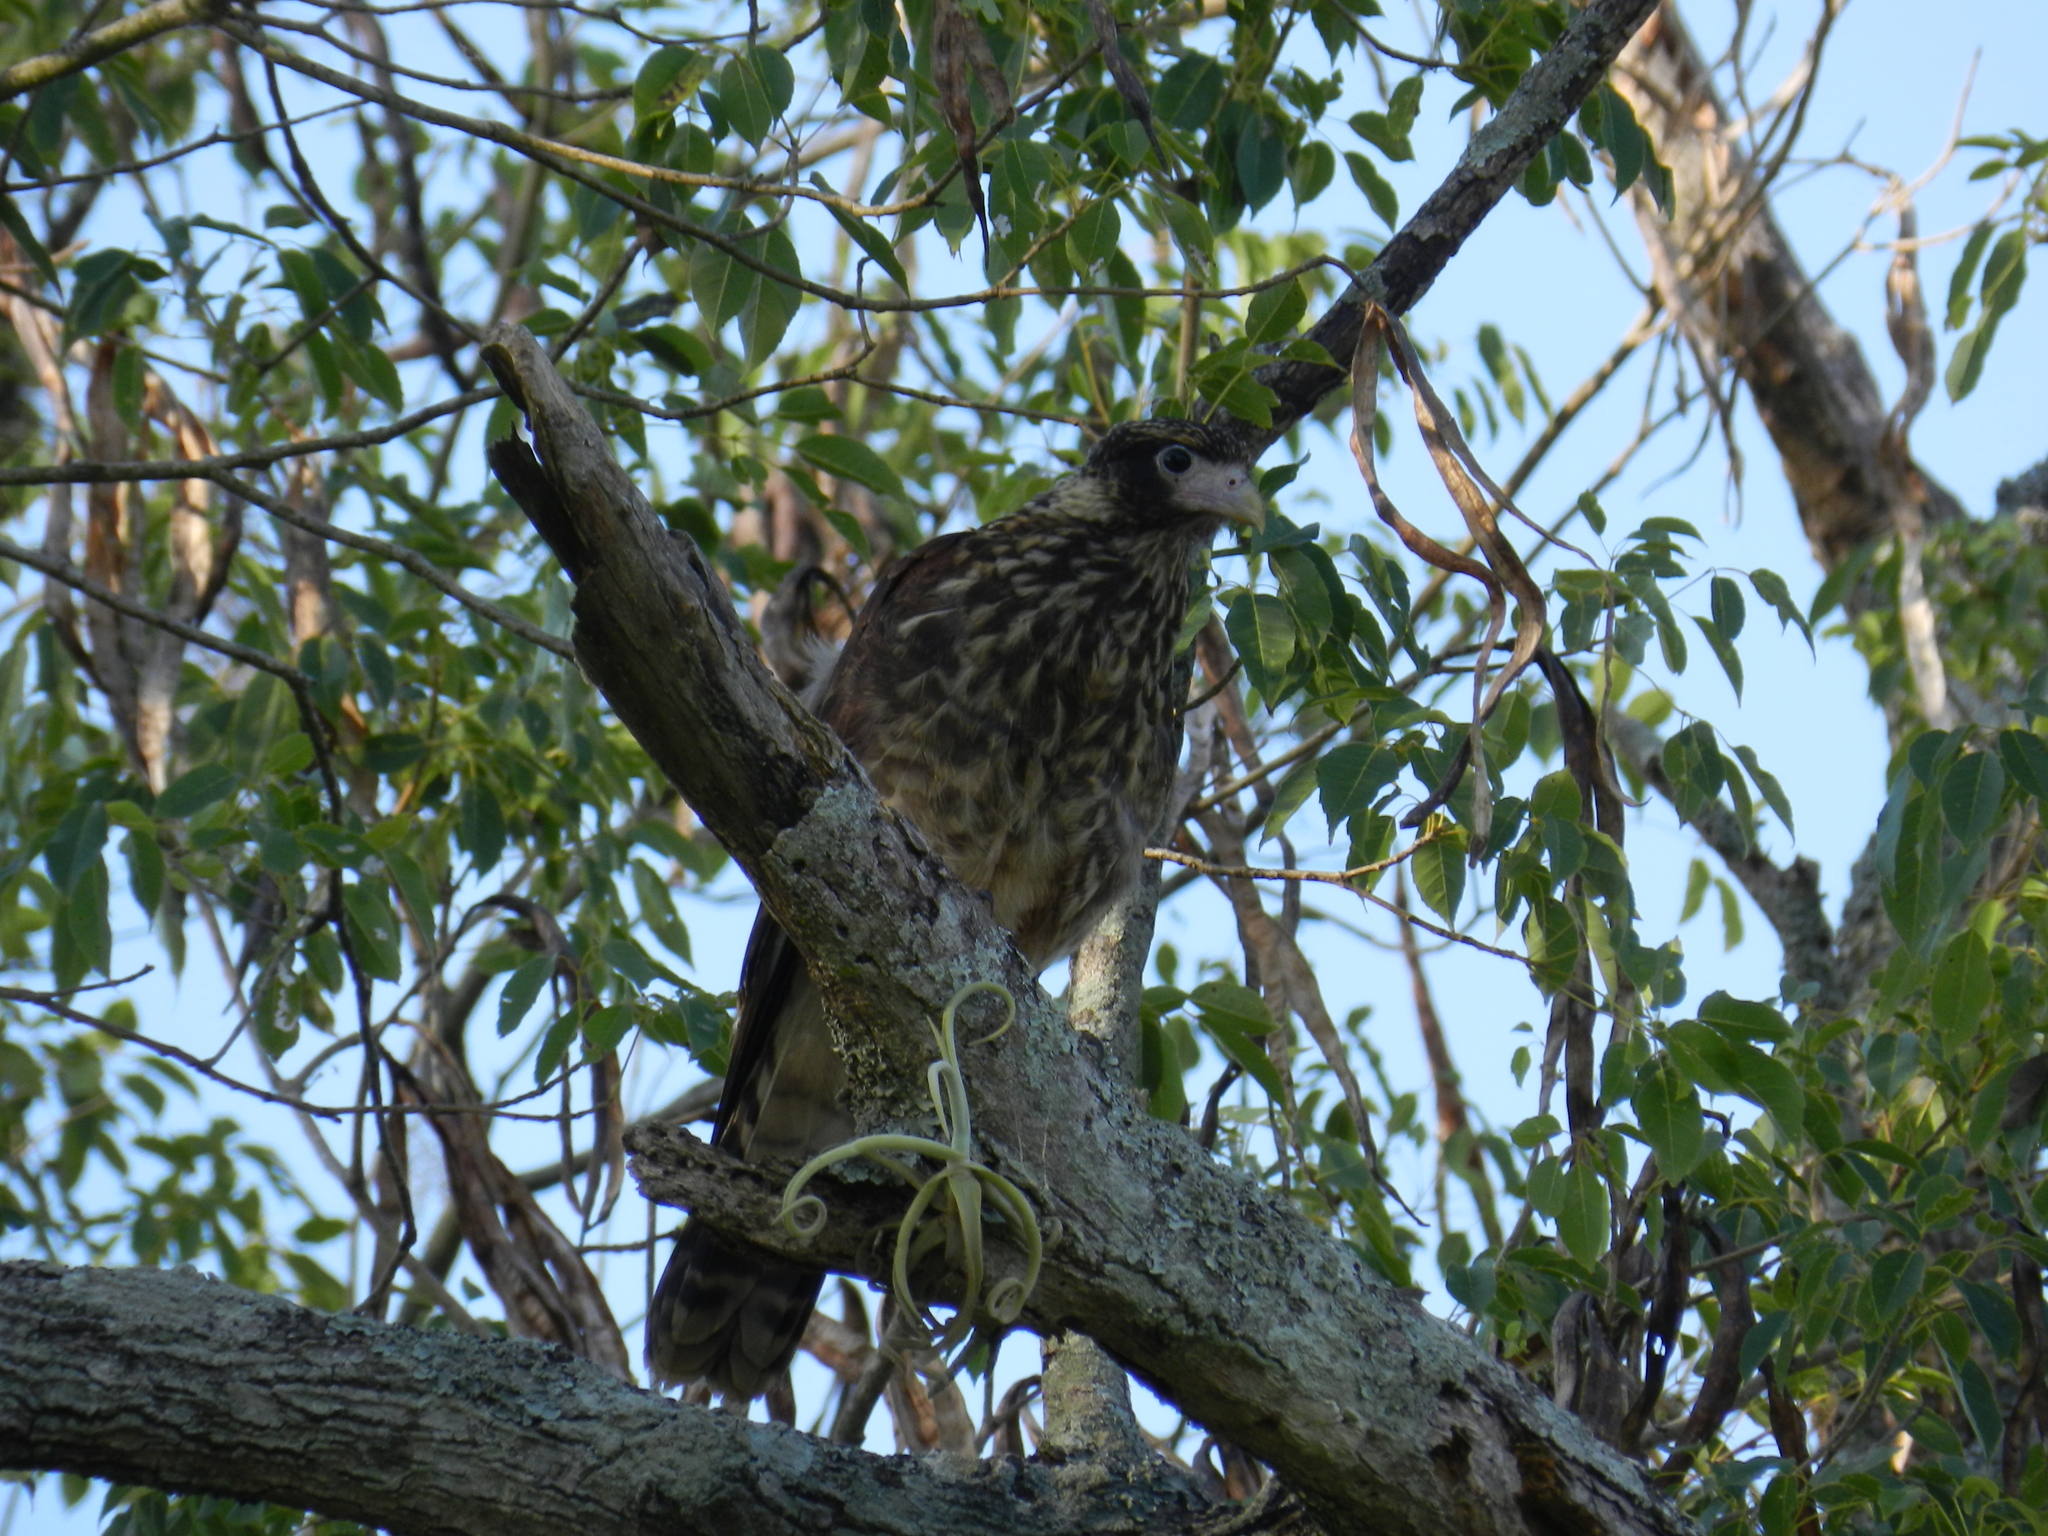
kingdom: Animalia
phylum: Chordata
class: Aves
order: Falconiformes
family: Falconidae
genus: Daptrius
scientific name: Daptrius
